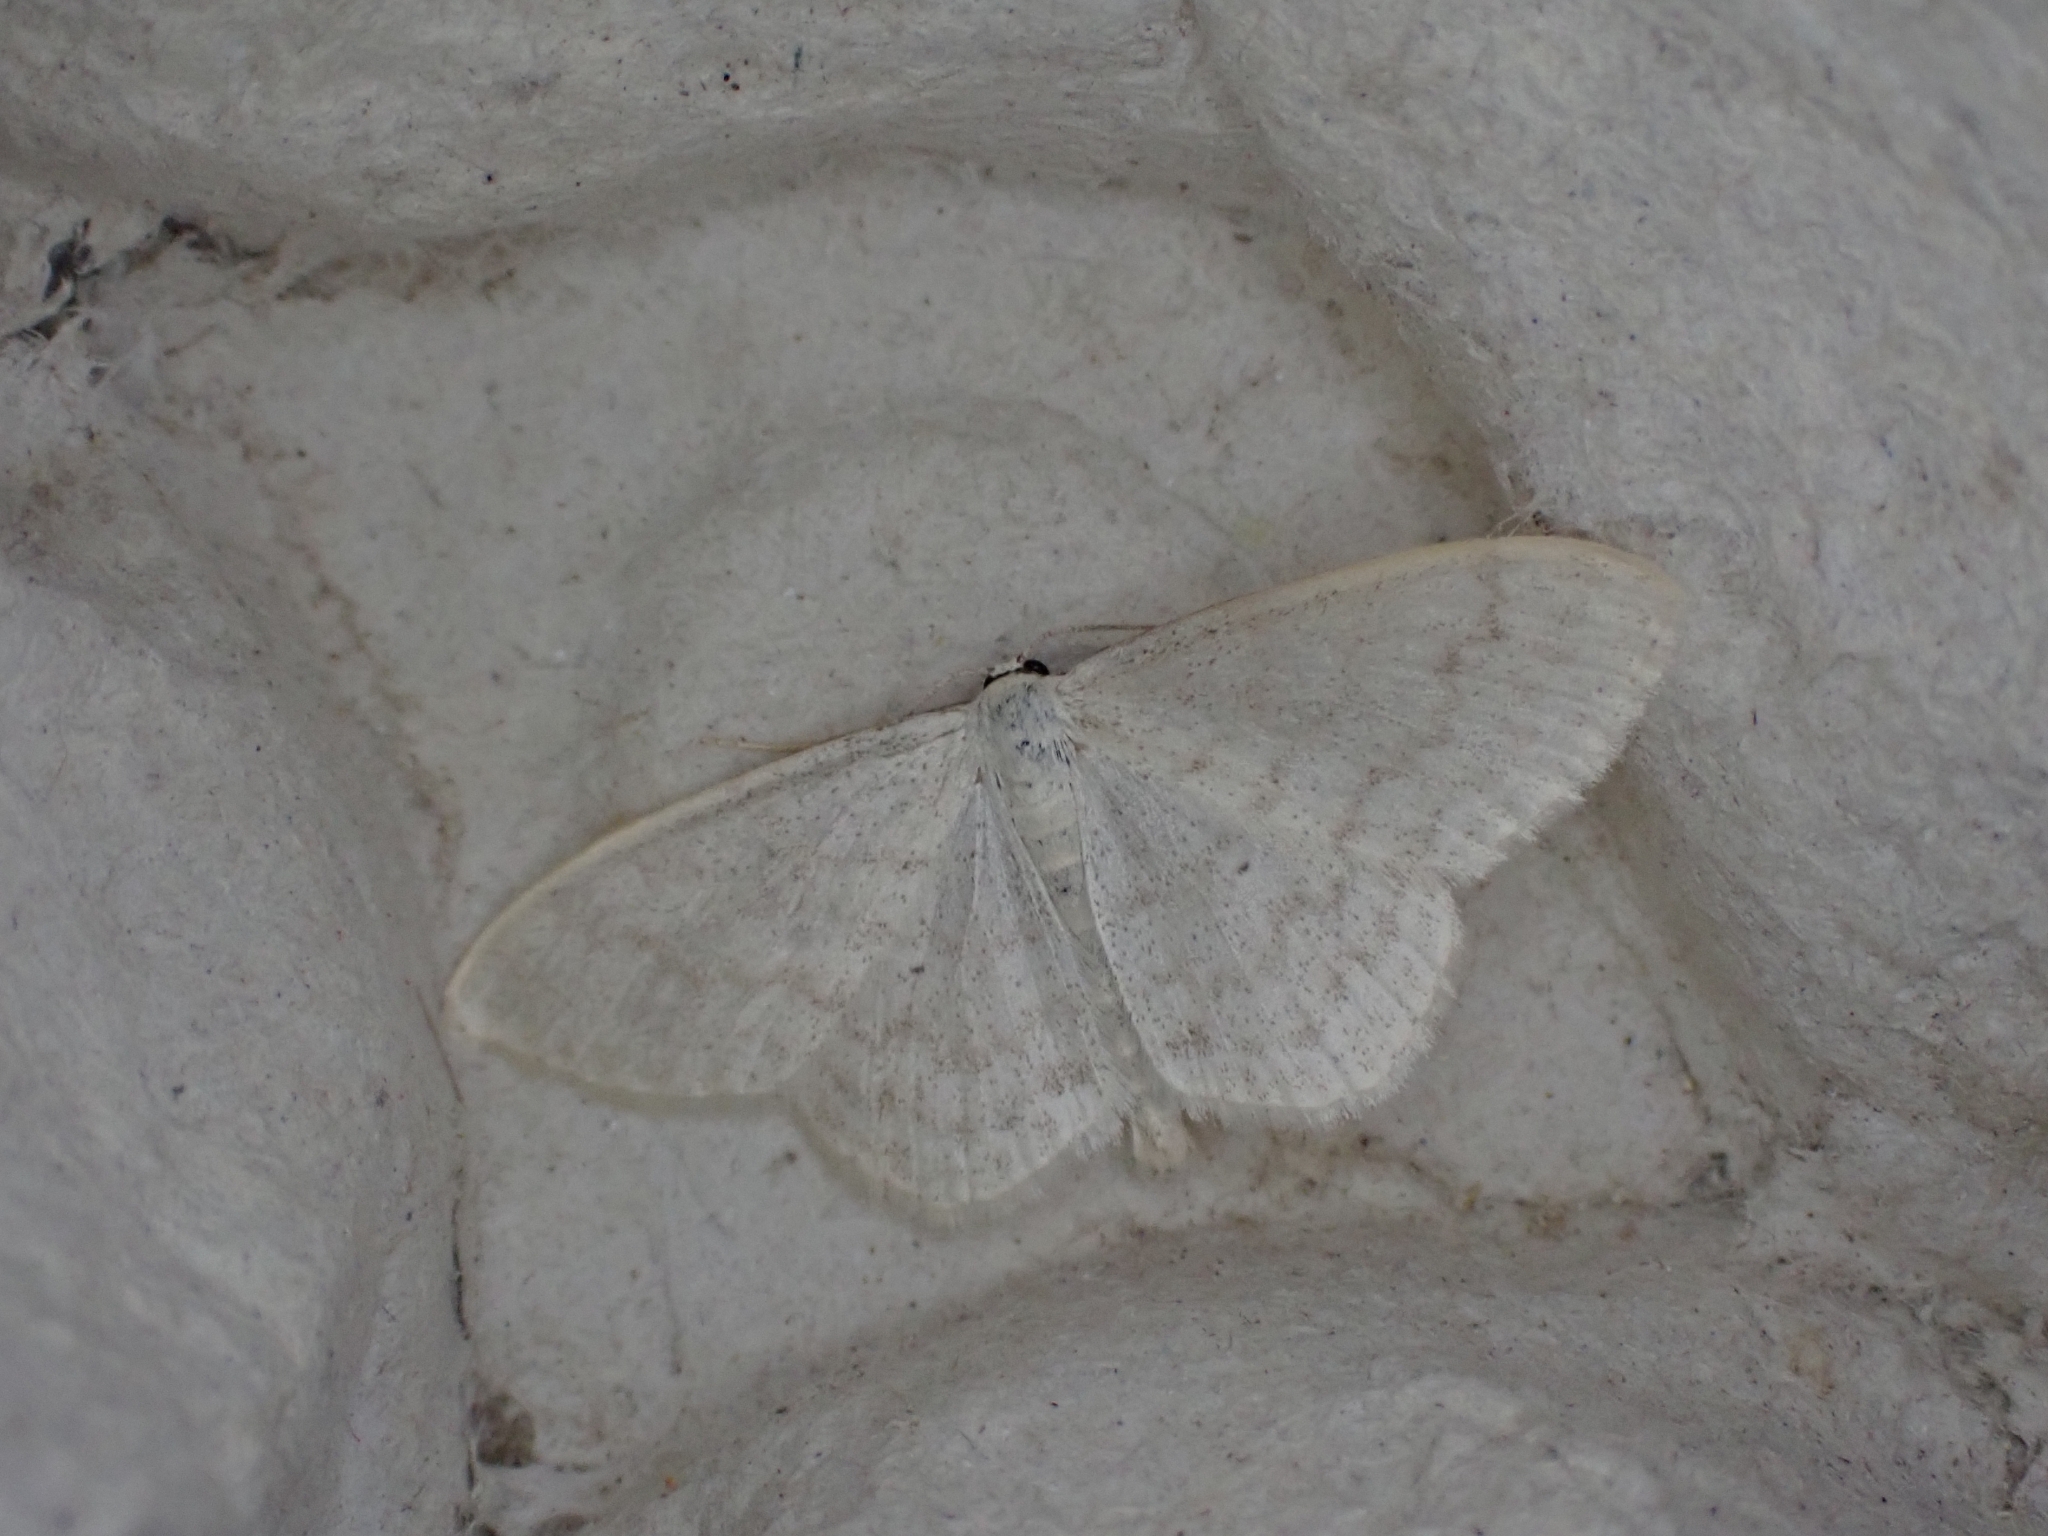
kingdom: Animalia
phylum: Arthropoda
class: Insecta
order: Lepidoptera
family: Geometridae
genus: Scopula
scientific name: Scopula floslactata
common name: Cream wave
